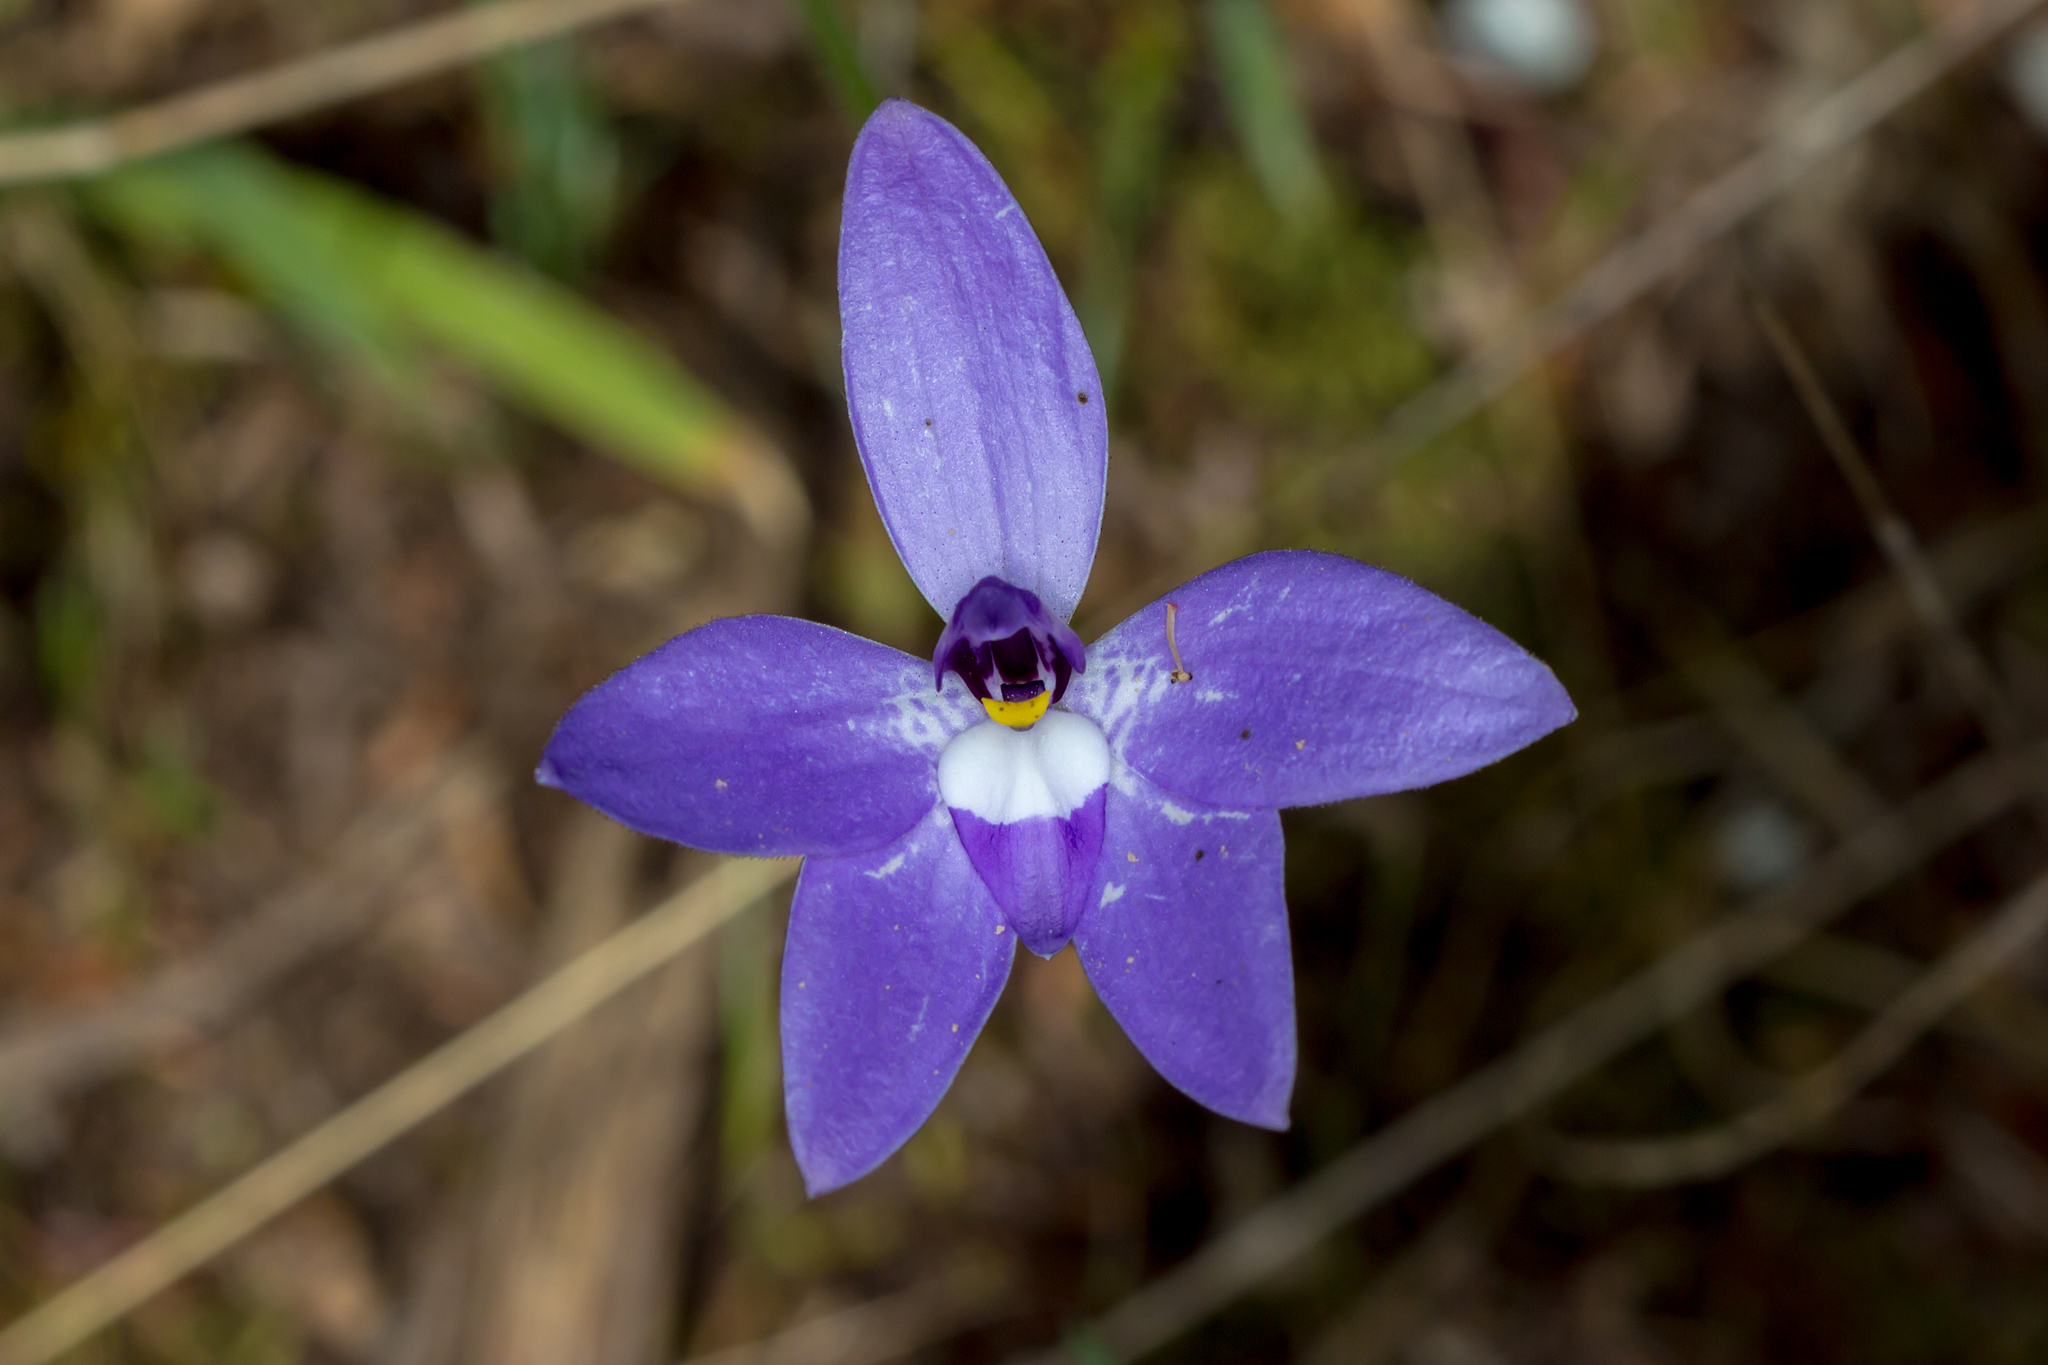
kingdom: Plantae
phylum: Tracheophyta
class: Liliopsida
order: Asparagales
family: Orchidaceae
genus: Caladenia
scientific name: Caladenia major
